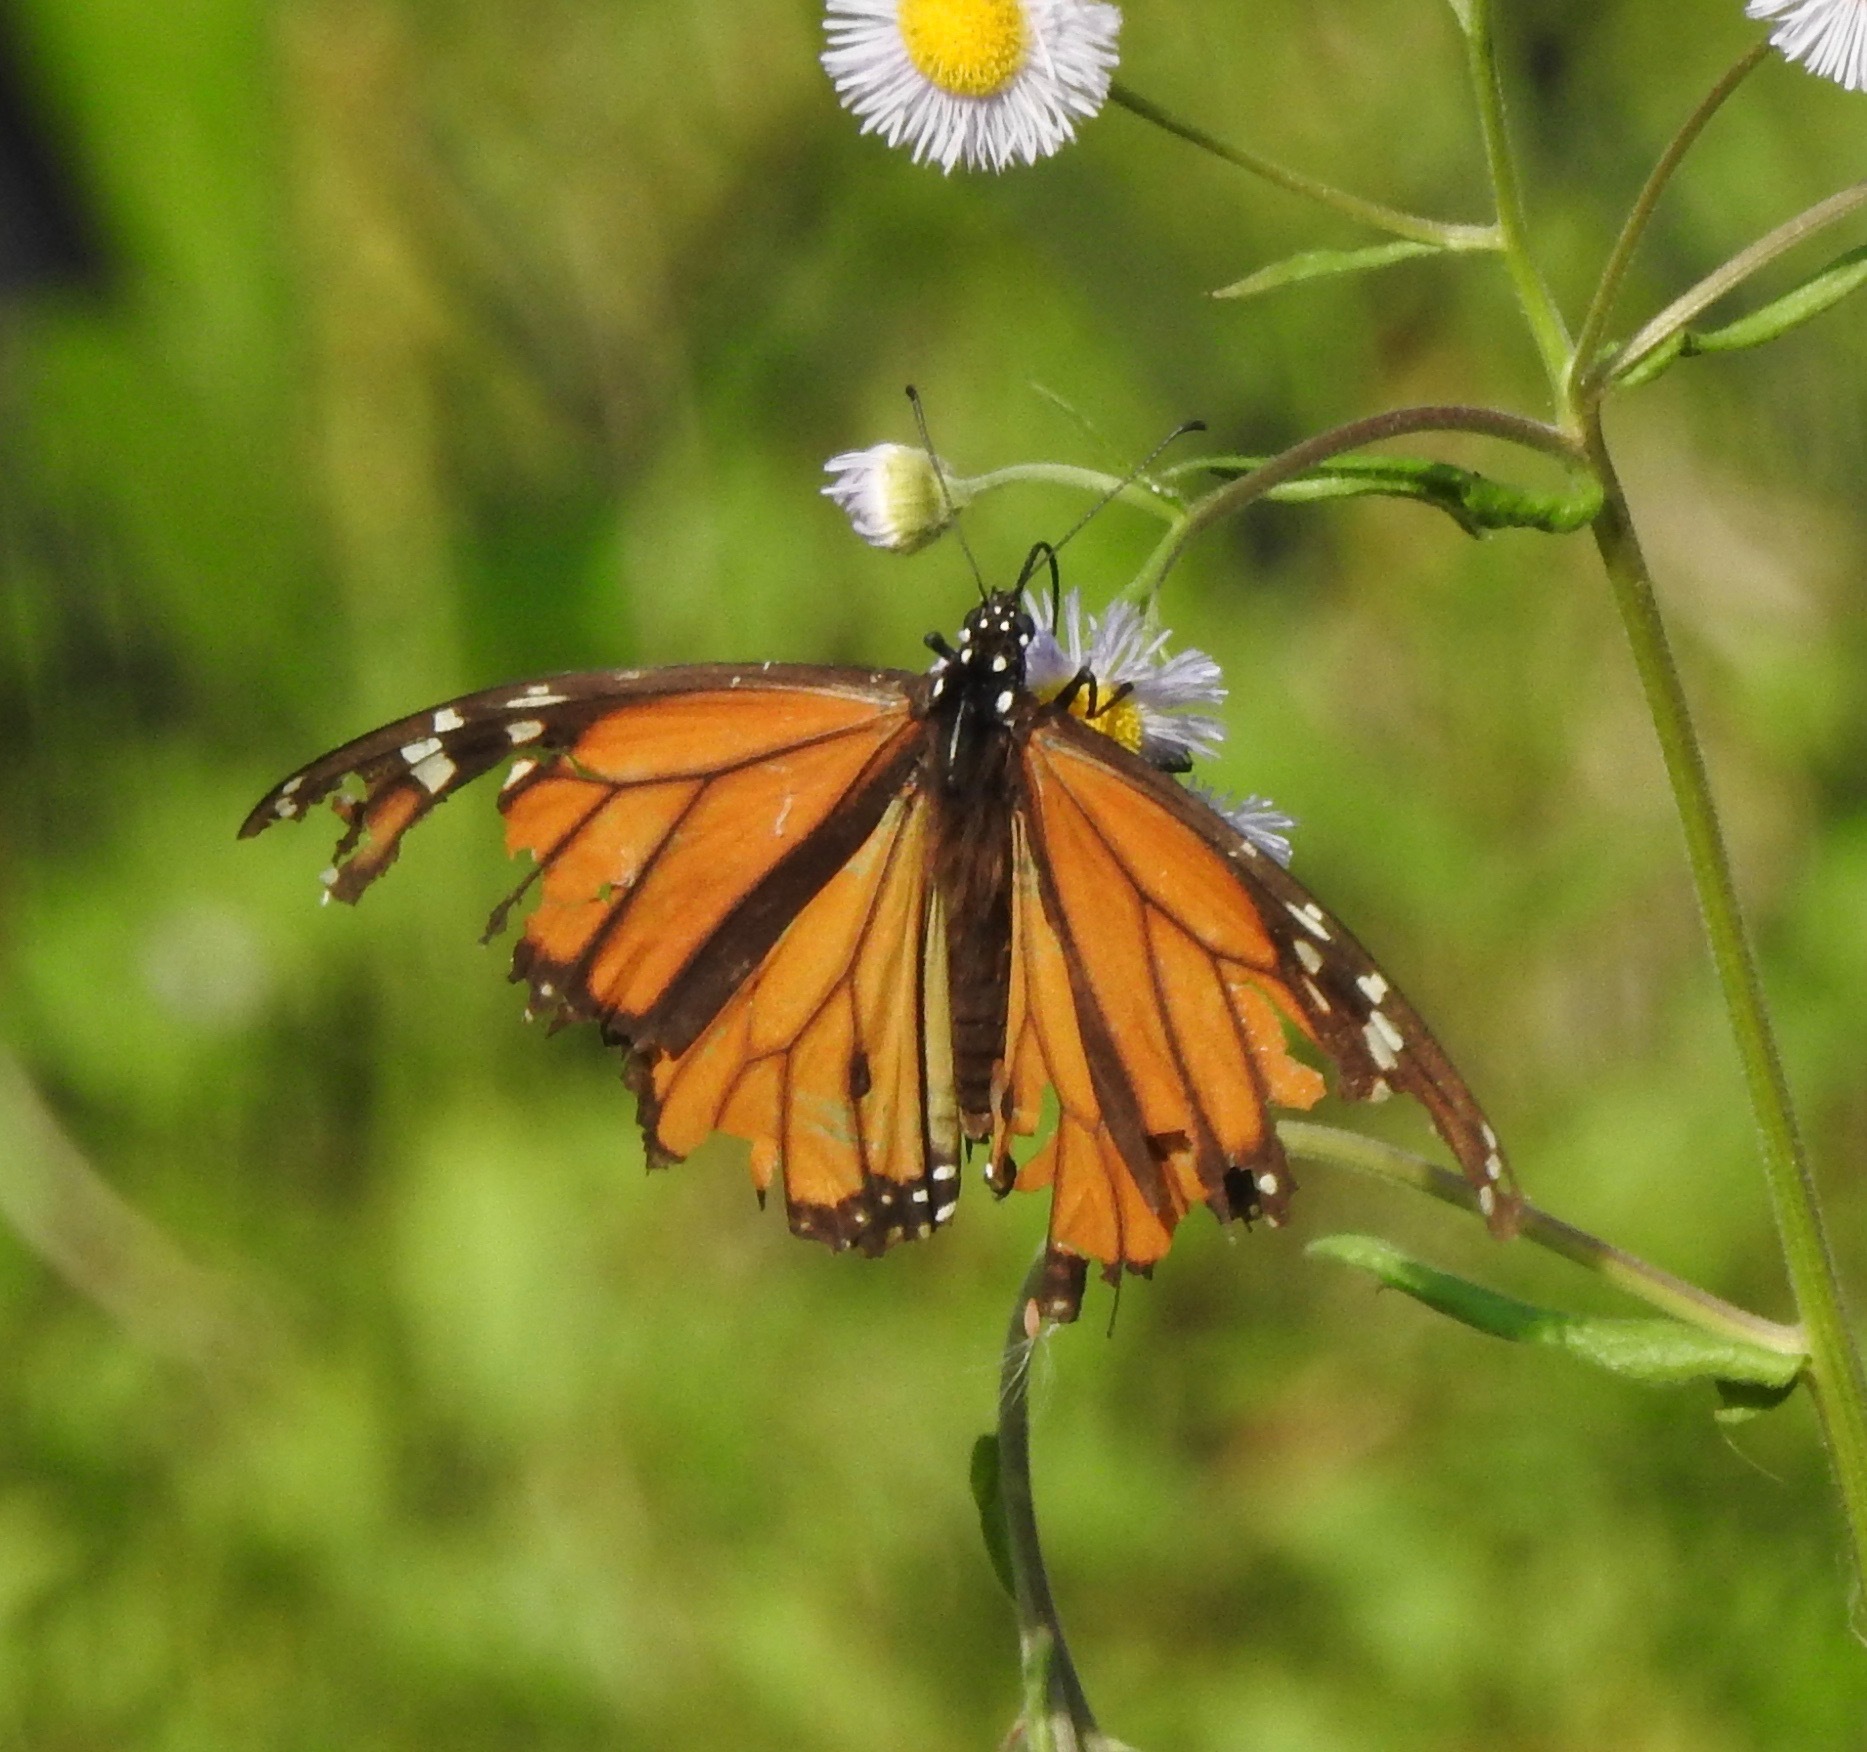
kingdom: Animalia
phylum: Arthropoda
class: Insecta
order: Lepidoptera
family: Nymphalidae
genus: Danaus
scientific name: Danaus plexippus
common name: Monarch
